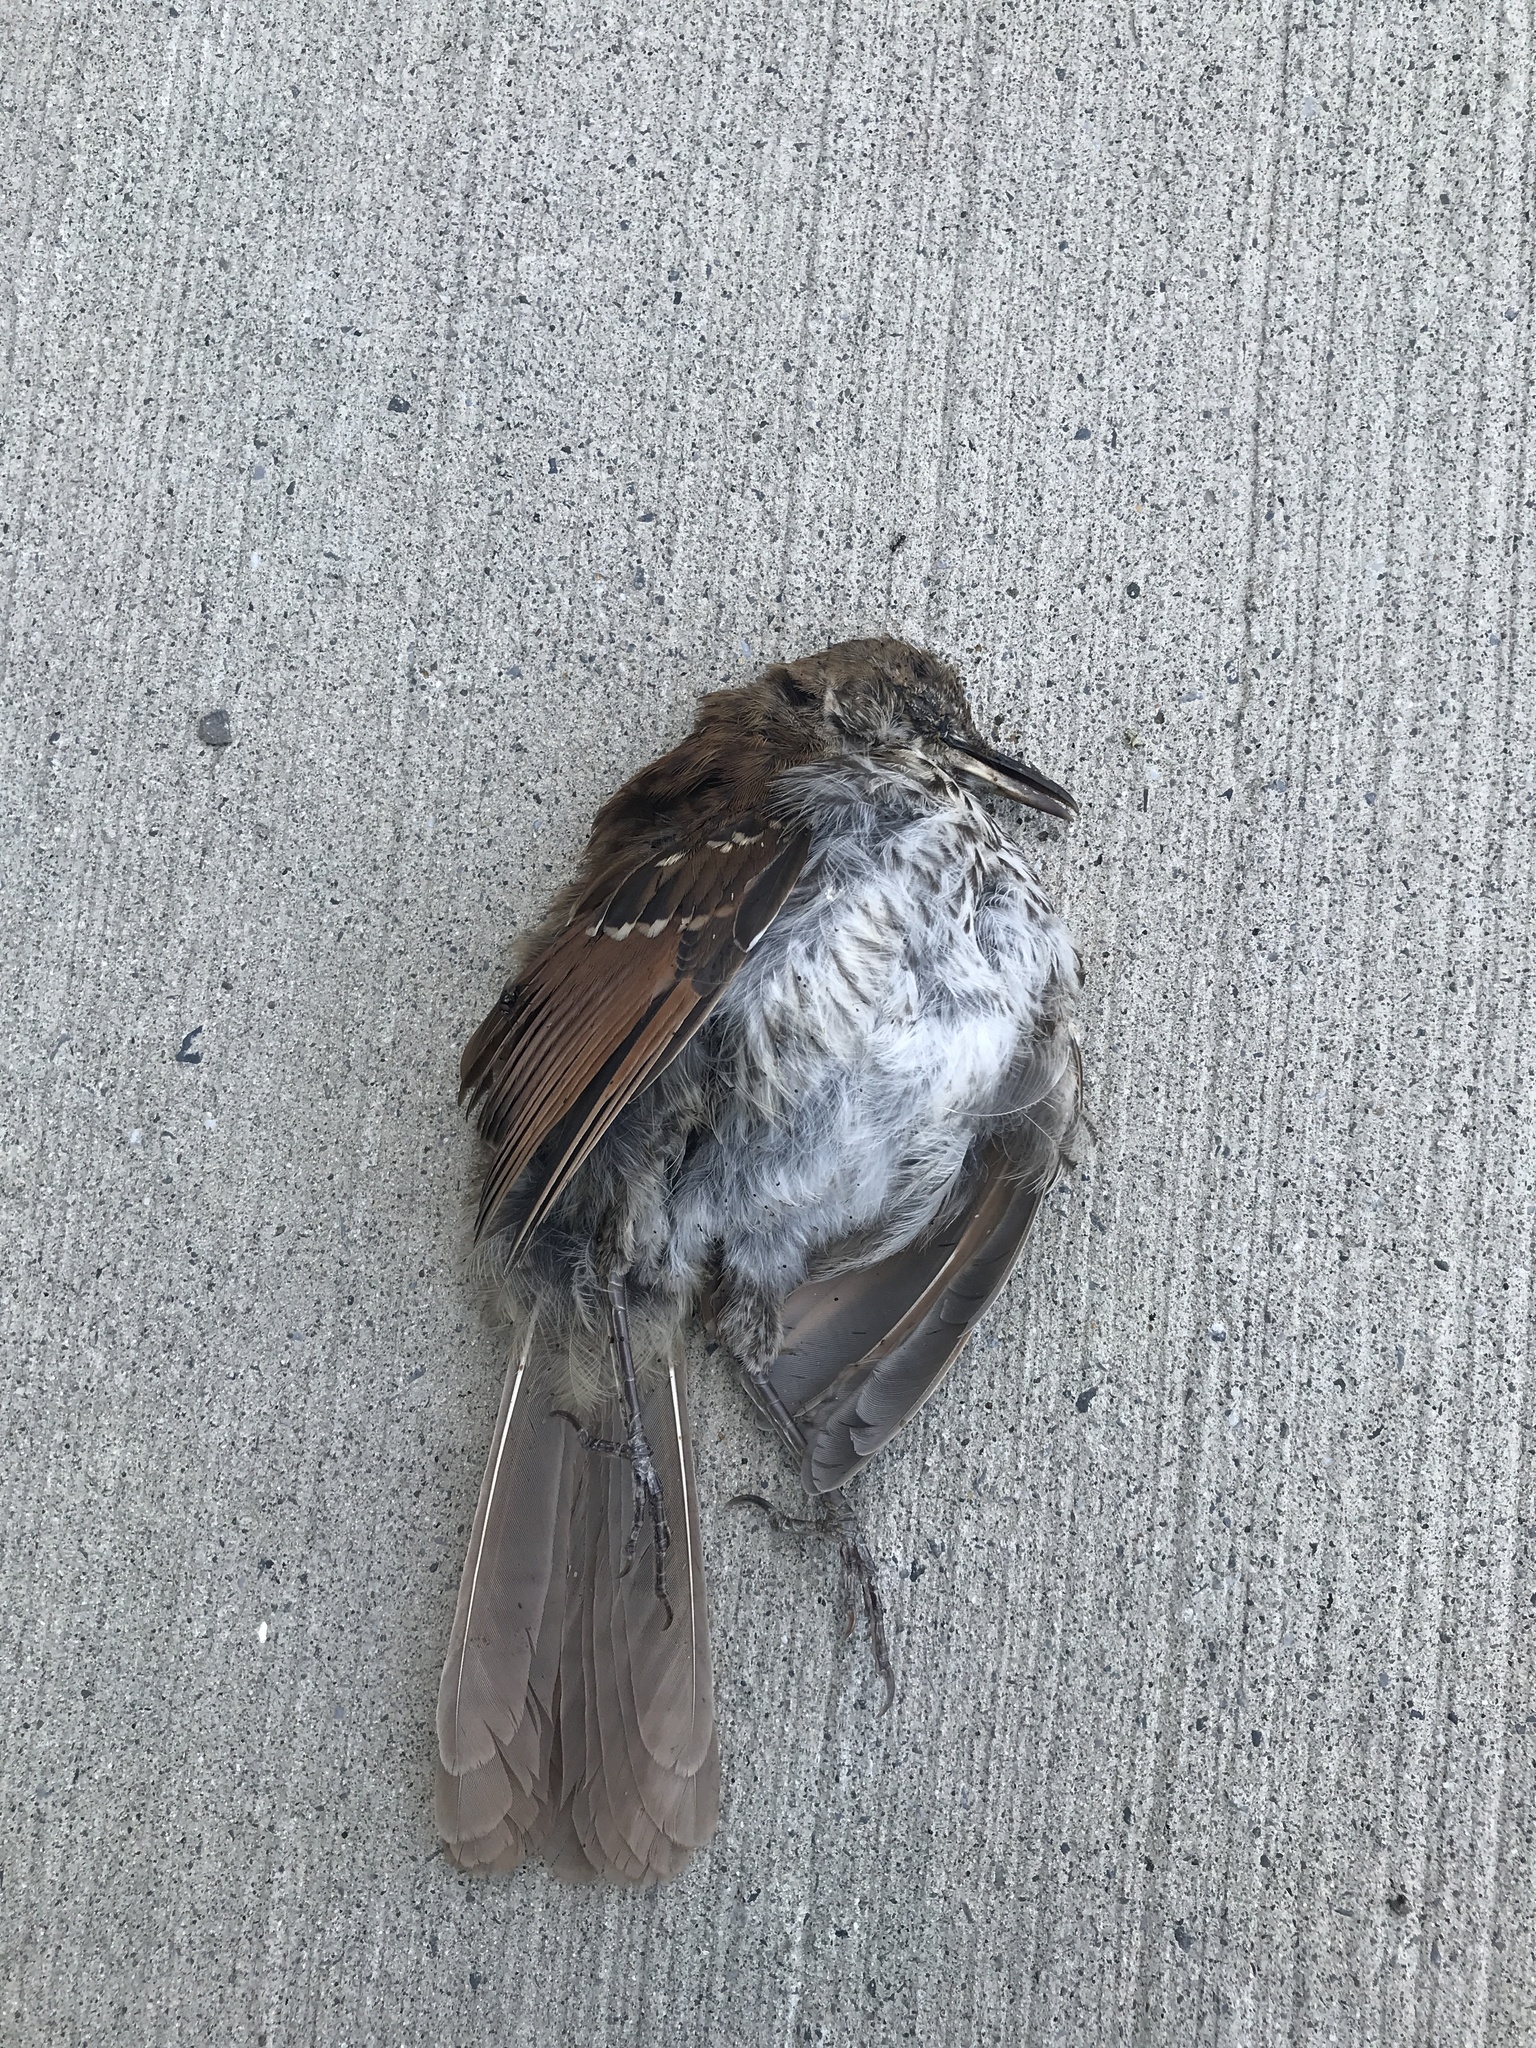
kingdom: Animalia
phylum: Chordata
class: Aves
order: Passeriformes
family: Mimidae
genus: Toxostoma
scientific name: Toxostoma rufum
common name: Brown thrasher
